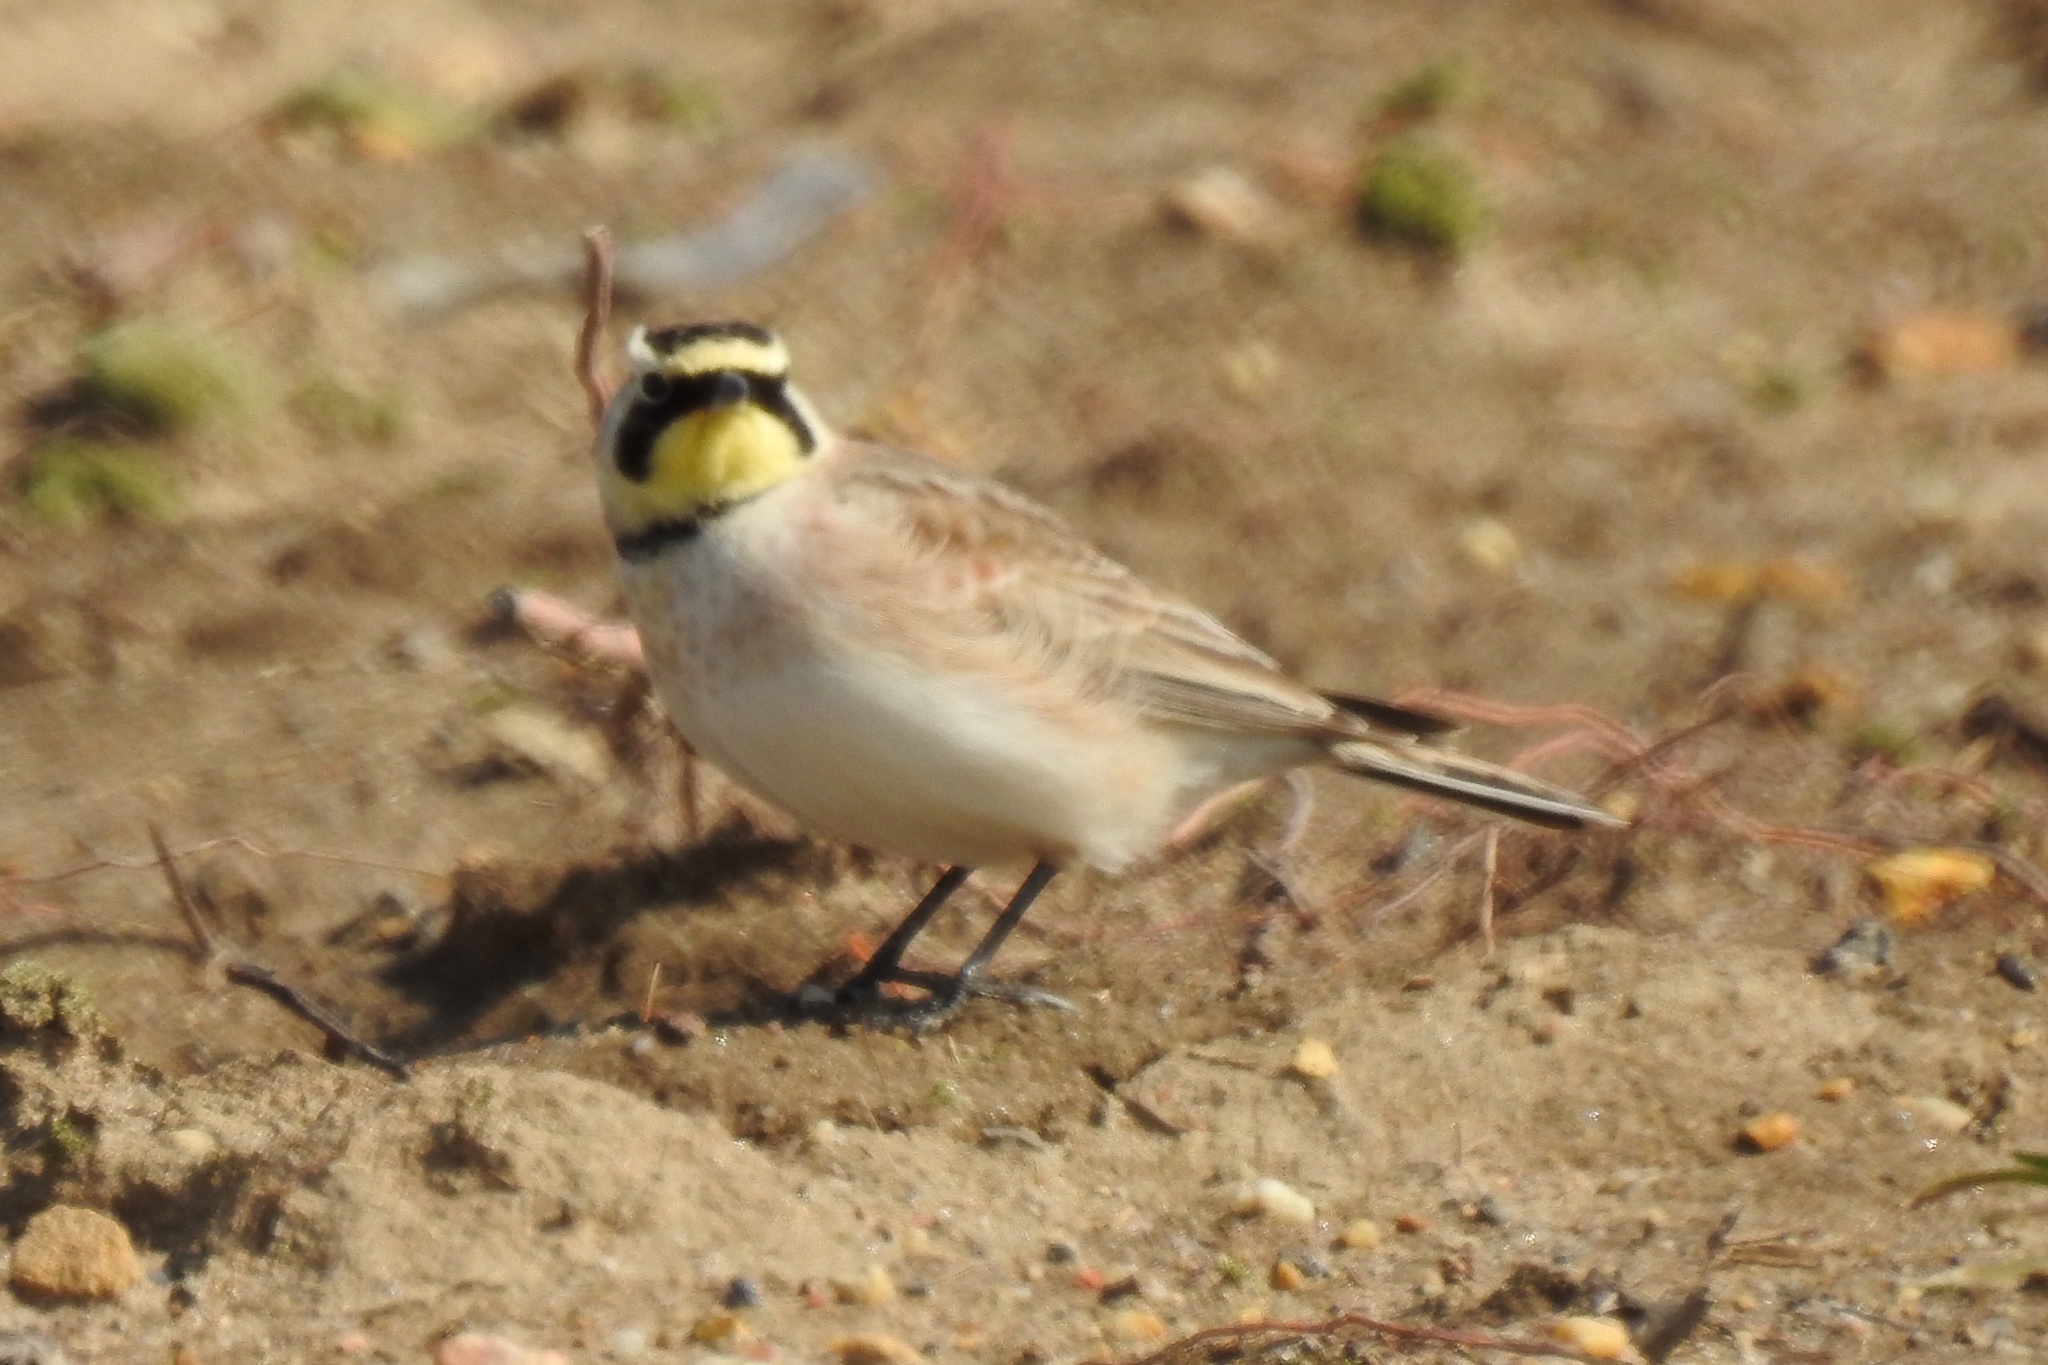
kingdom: Animalia
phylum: Chordata
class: Aves
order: Passeriformes
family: Alaudidae
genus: Eremophila
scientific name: Eremophila alpestris
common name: Horned lark
